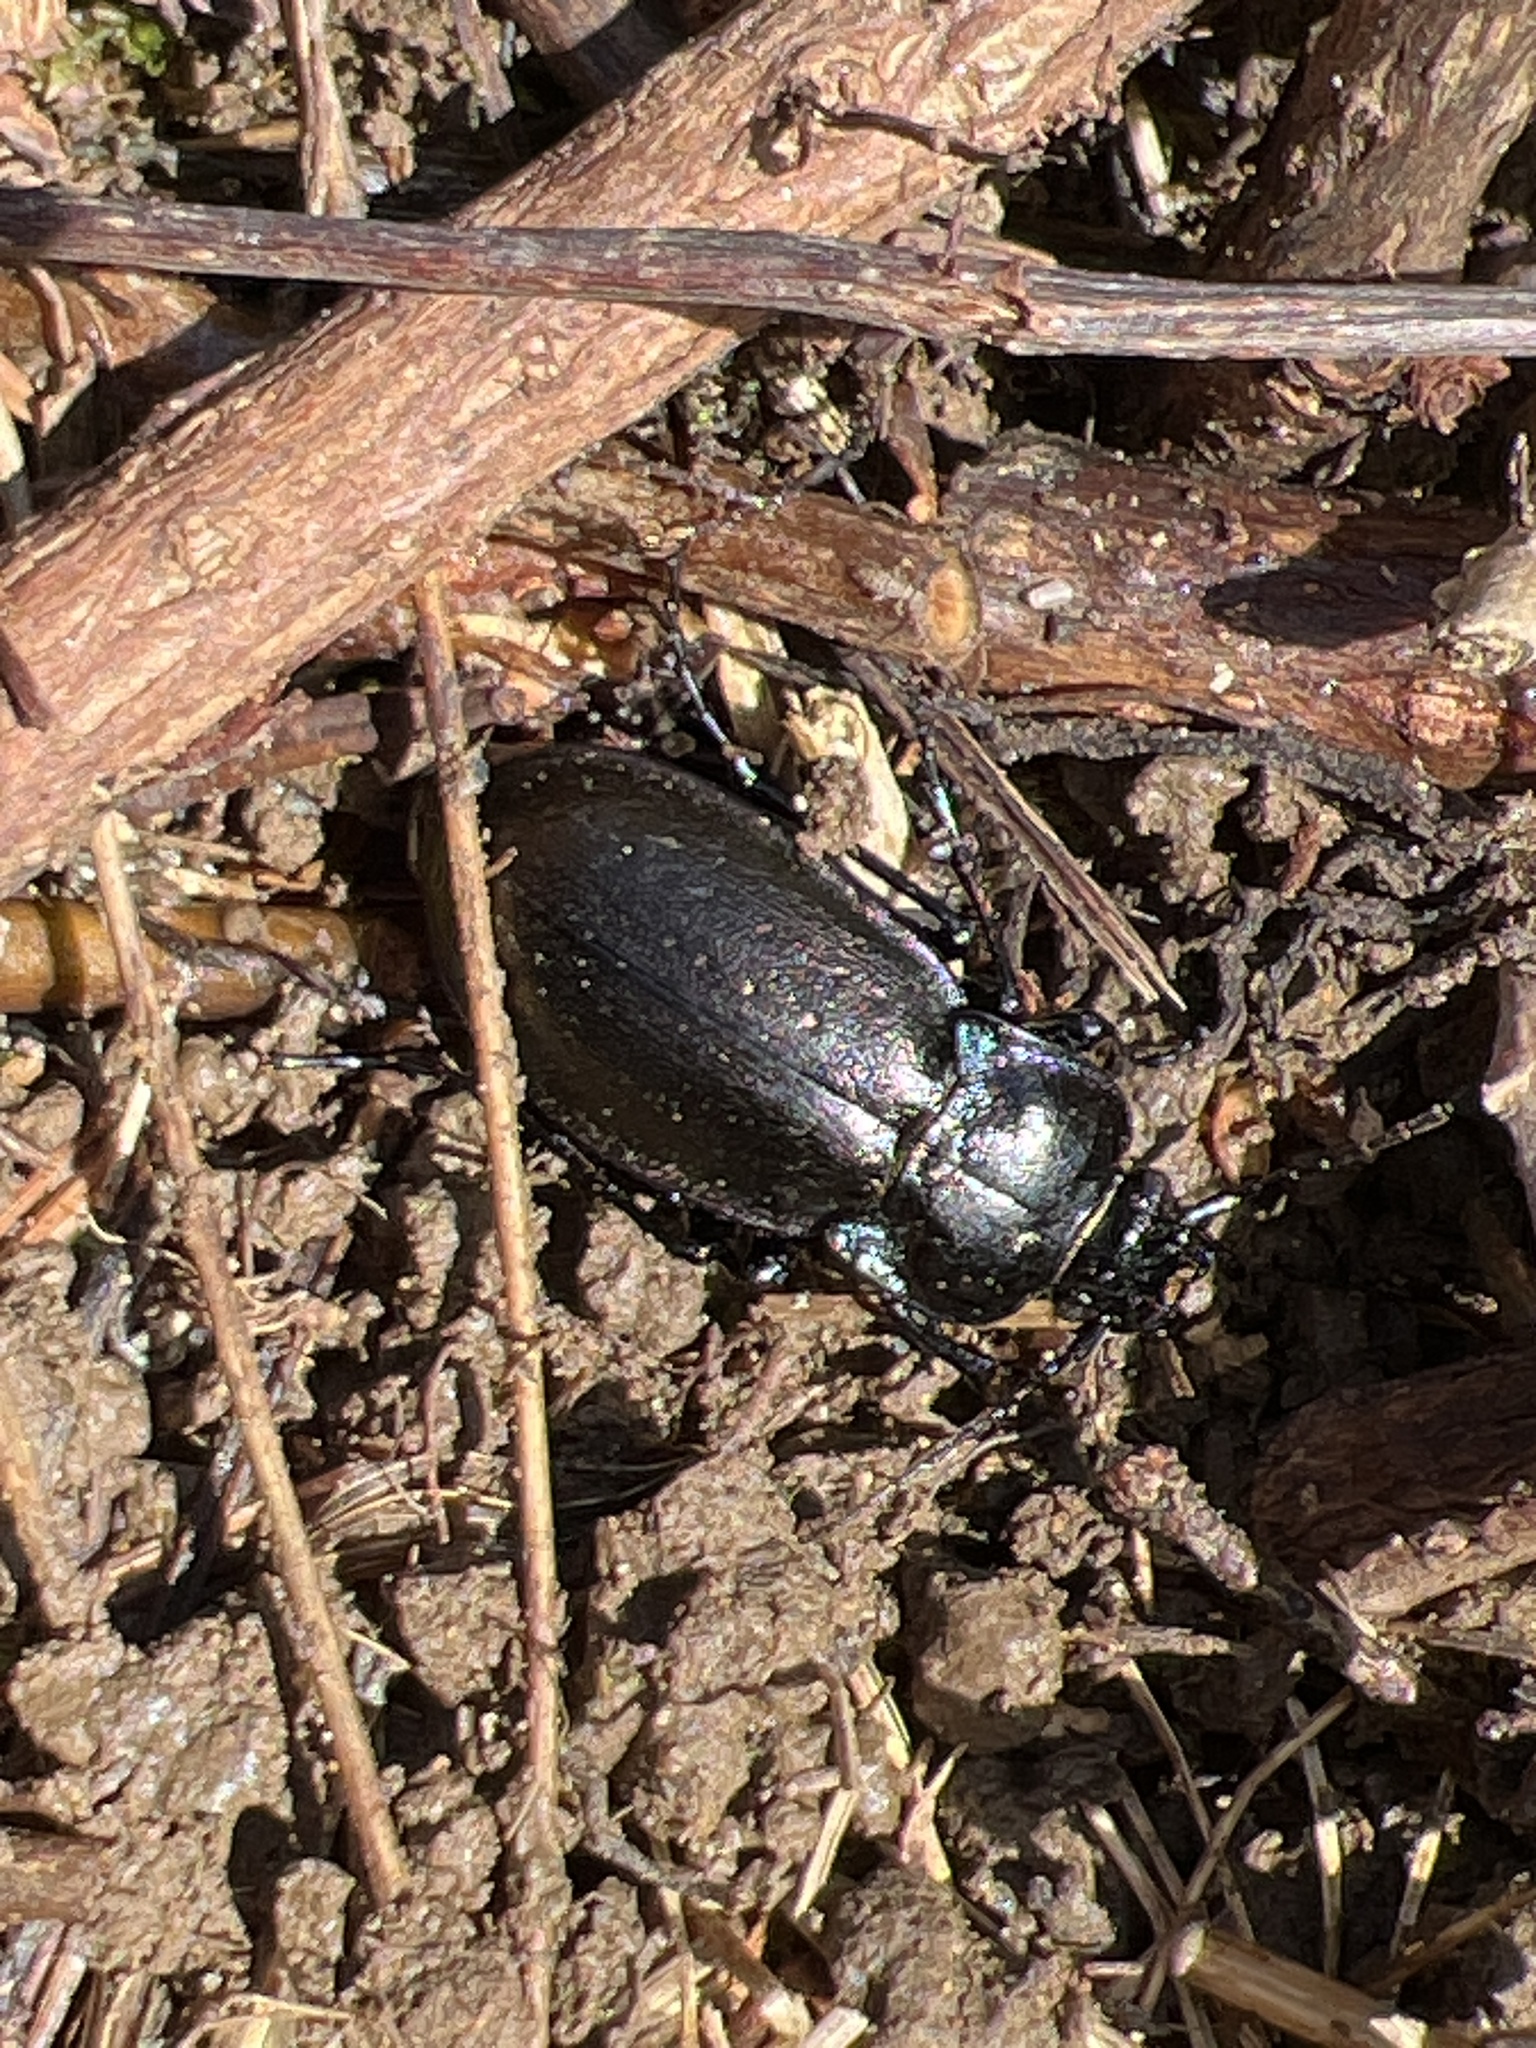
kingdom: Animalia
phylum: Arthropoda
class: Insecta
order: Coleoptera
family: Carabidae
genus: Carabus
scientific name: Carabus nemoralis
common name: European ground beetle
